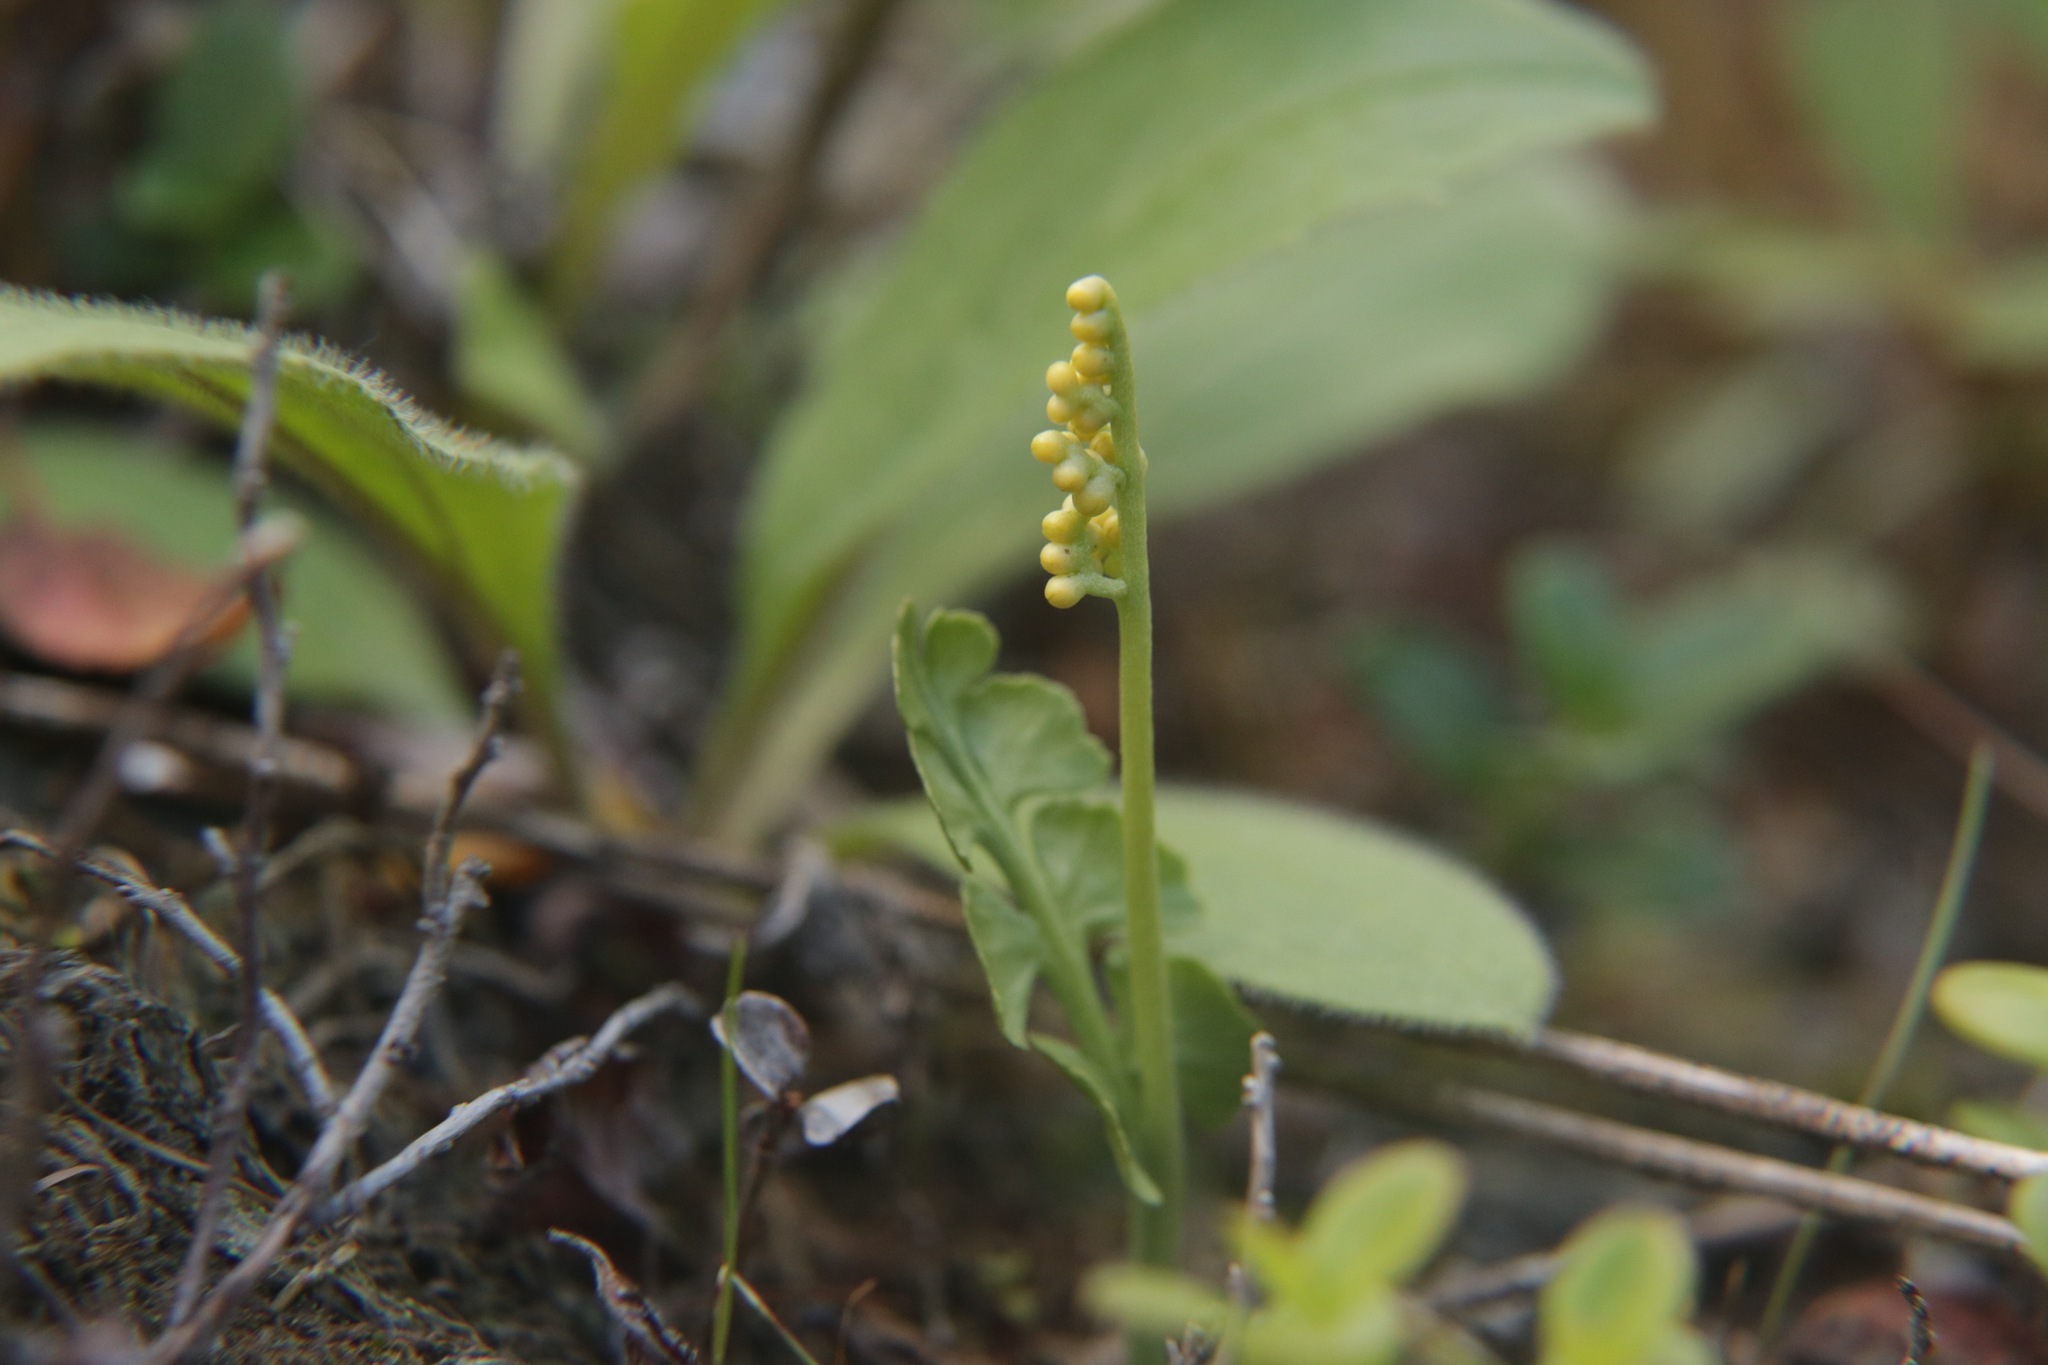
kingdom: Plantae
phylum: Tracheophyta
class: Polypodiopsida
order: Ophioglossales
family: Ophioglossaceae
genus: Botrychium
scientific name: Botrychium lunaria
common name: Moonwort
